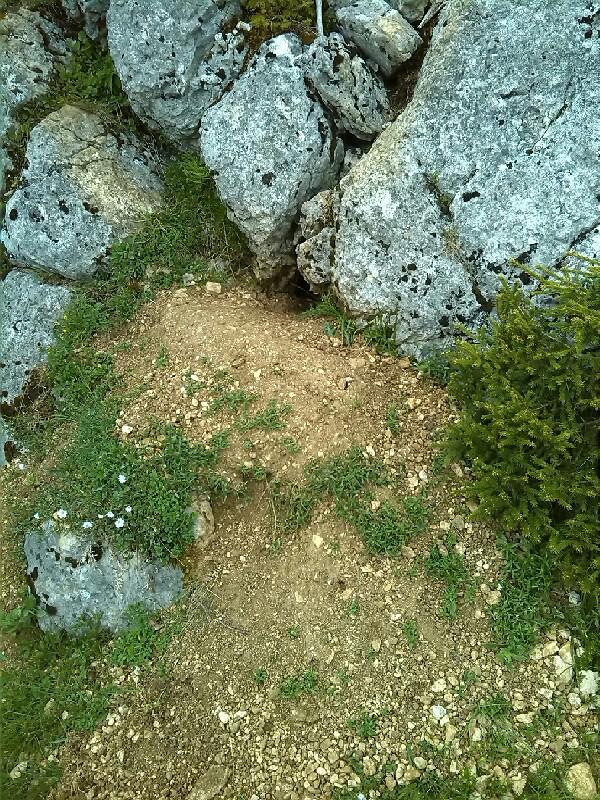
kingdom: Animalia
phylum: Chordata
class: Mammalia
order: Rodentia
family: Sciuridae
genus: Marmota
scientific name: Marmota marmota
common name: Alpine marmot
